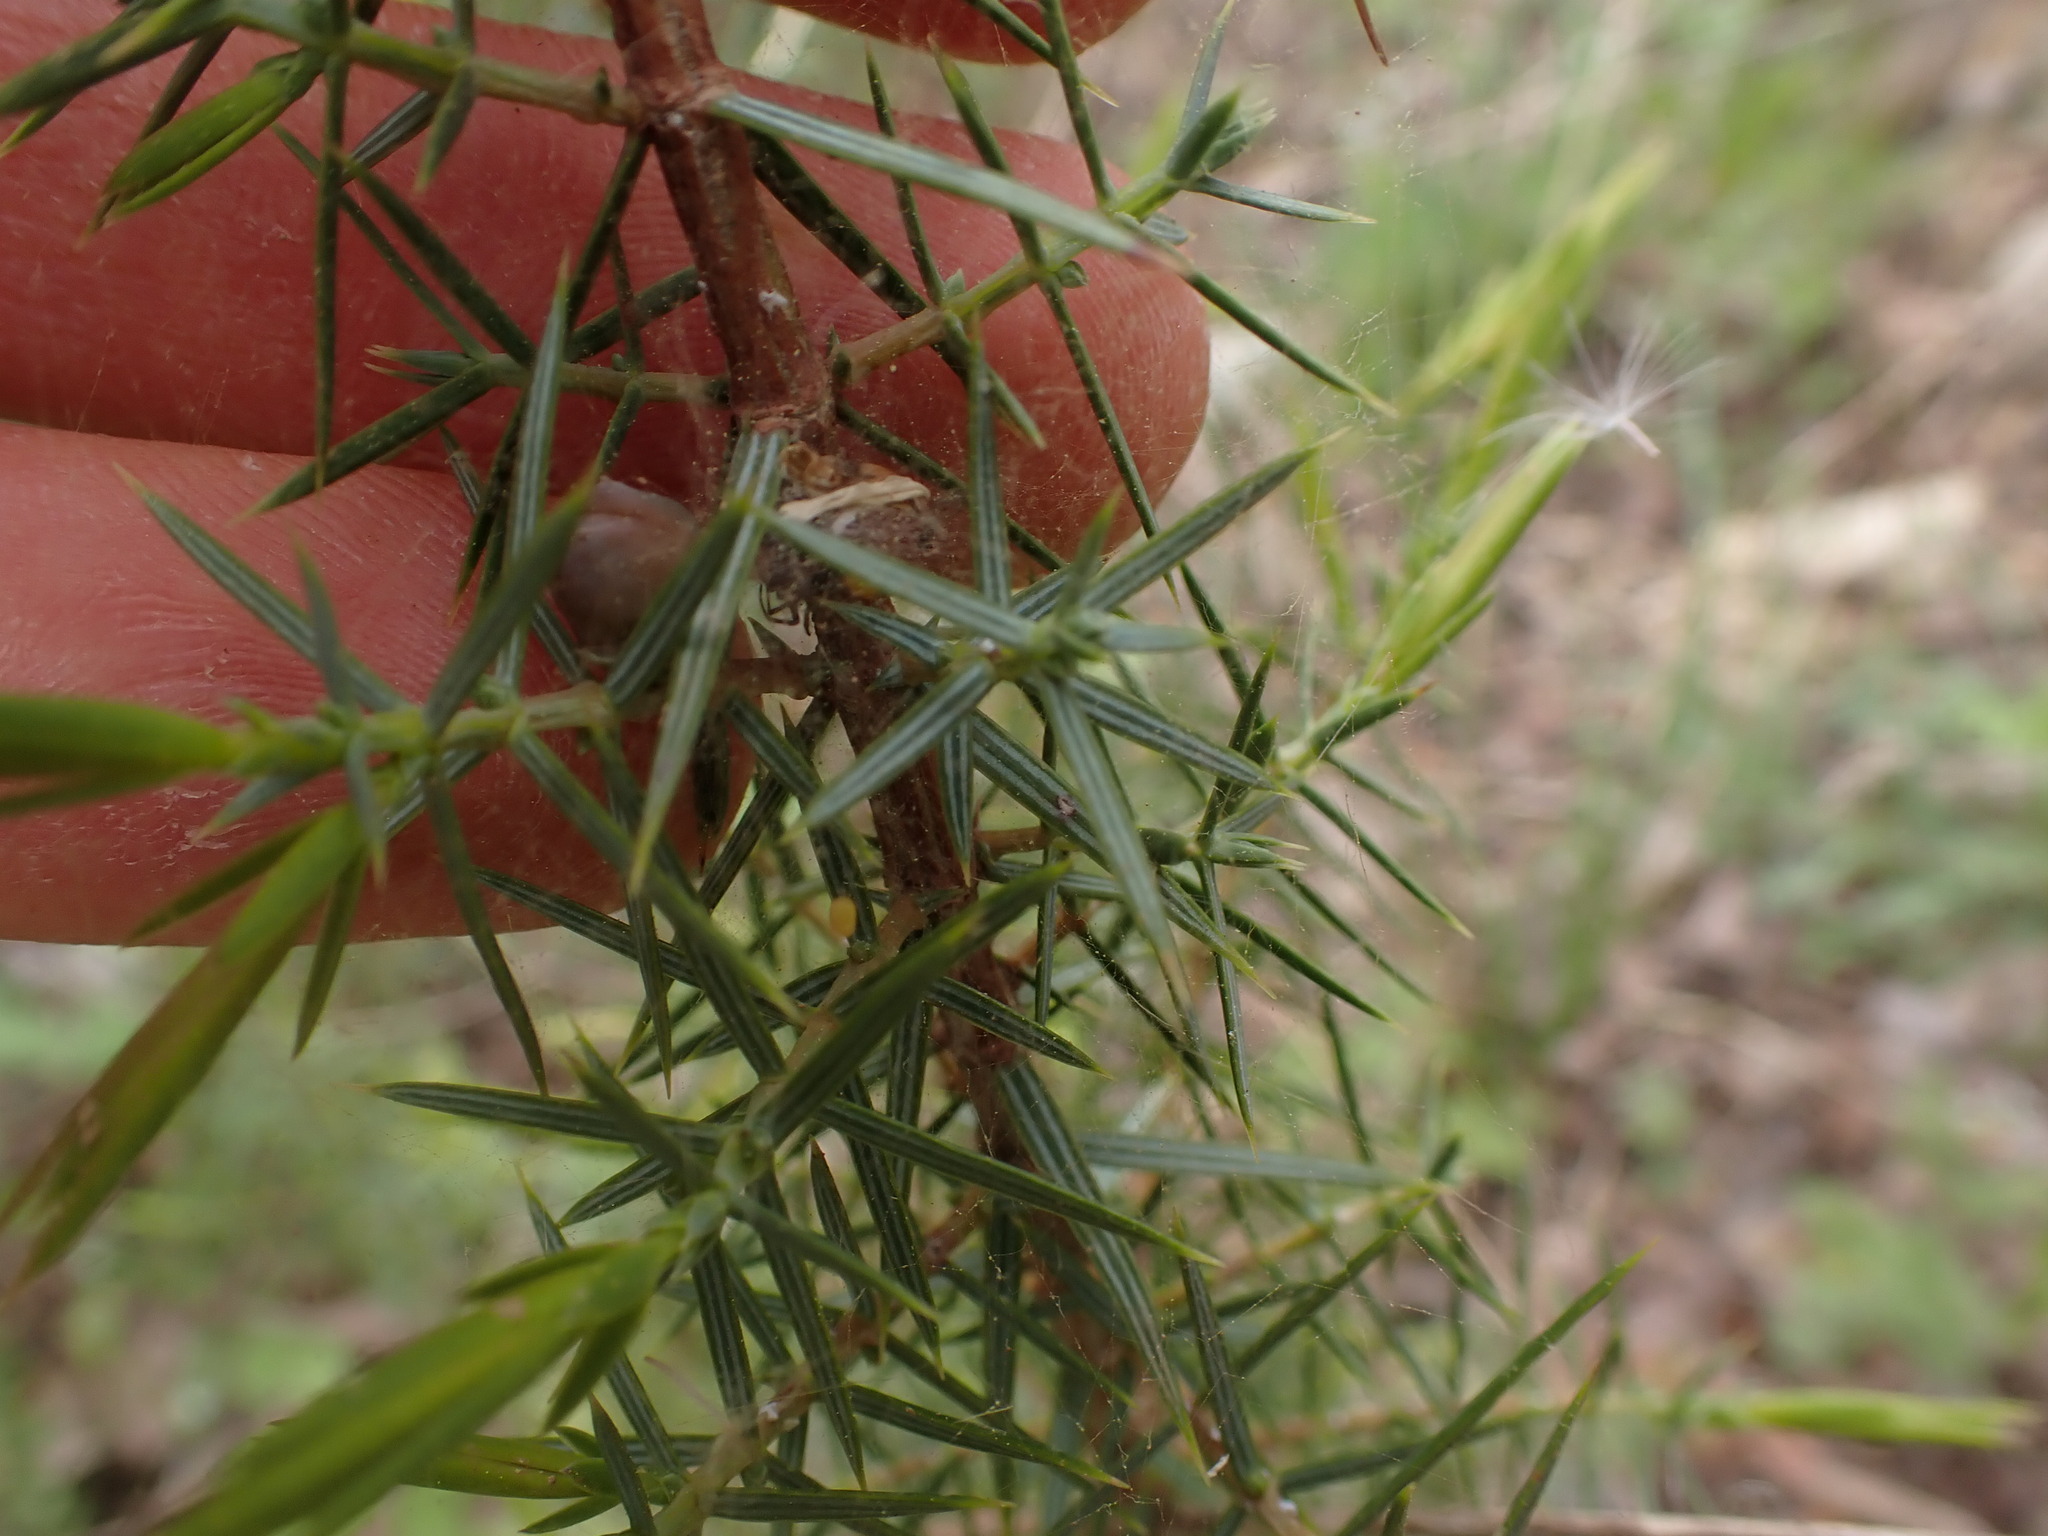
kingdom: Plantae
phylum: Tracheophyta
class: Pinopsida
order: Pinales
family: Cupressaceae
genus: Juniperus
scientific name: Juniperus oxycedrus
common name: Prickly juniper
